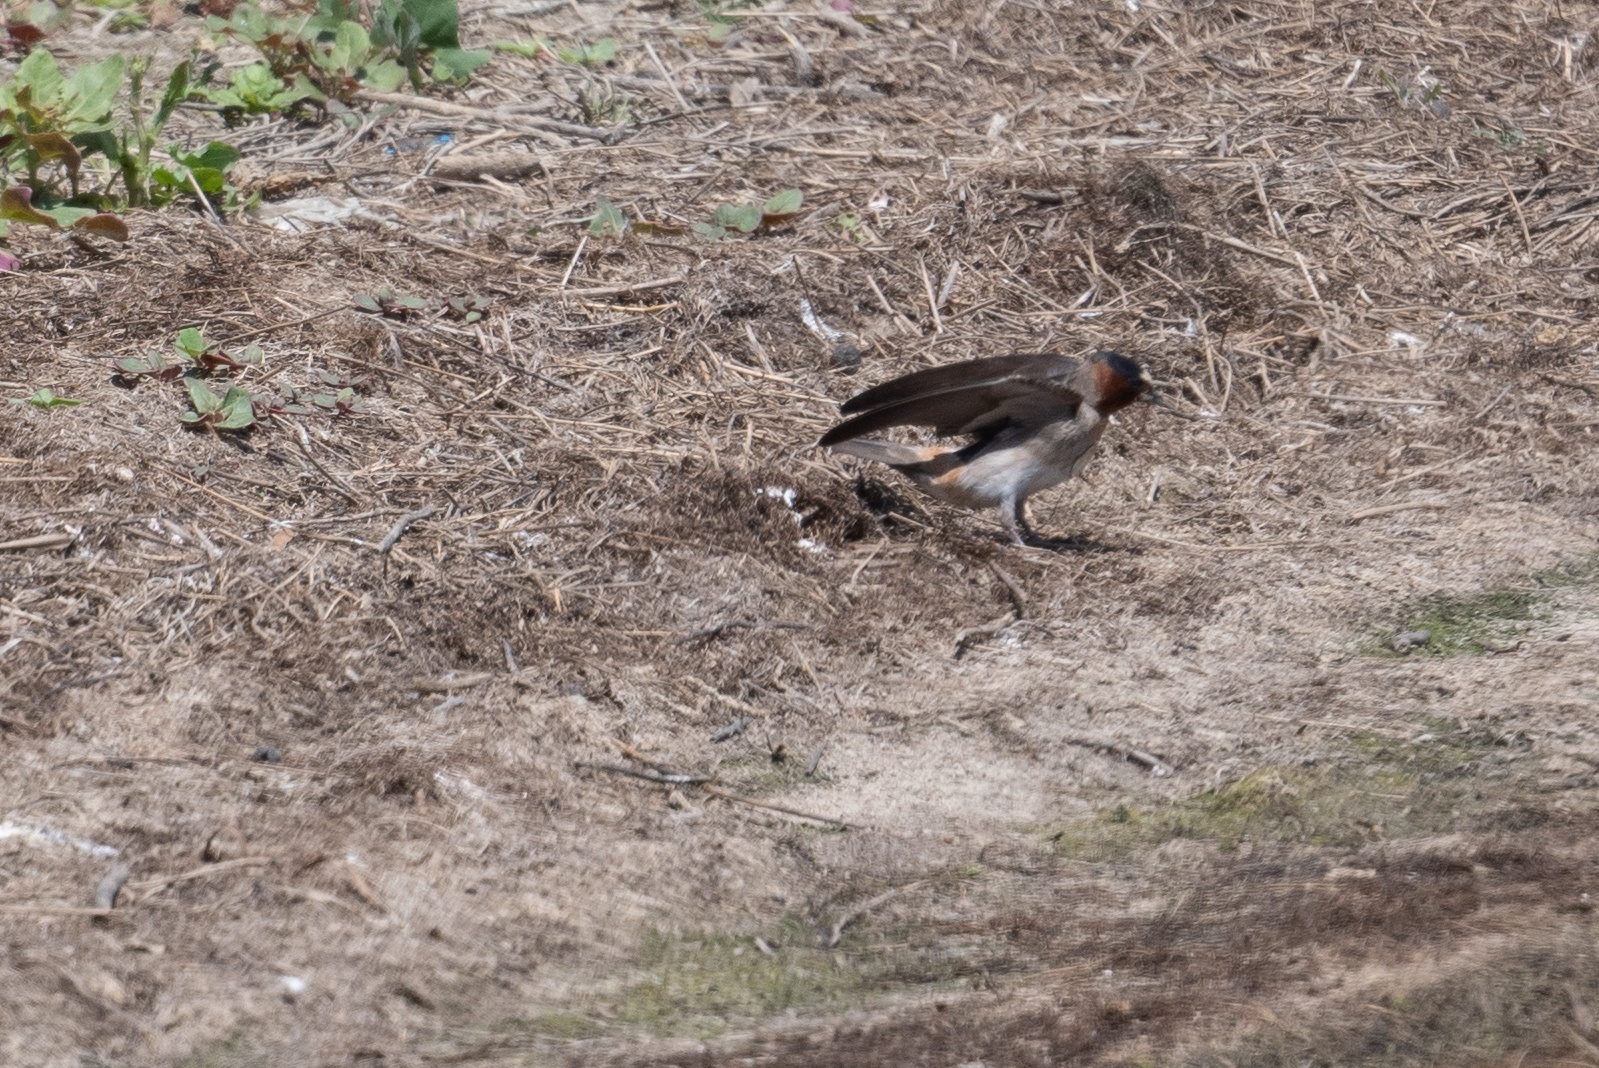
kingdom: Animalia
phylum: Chordata
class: Aves
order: Passeriformes
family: Hirundinidae
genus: Petrochelidon
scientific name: Petrochelidon pyrrhonota
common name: American cliff swallow
